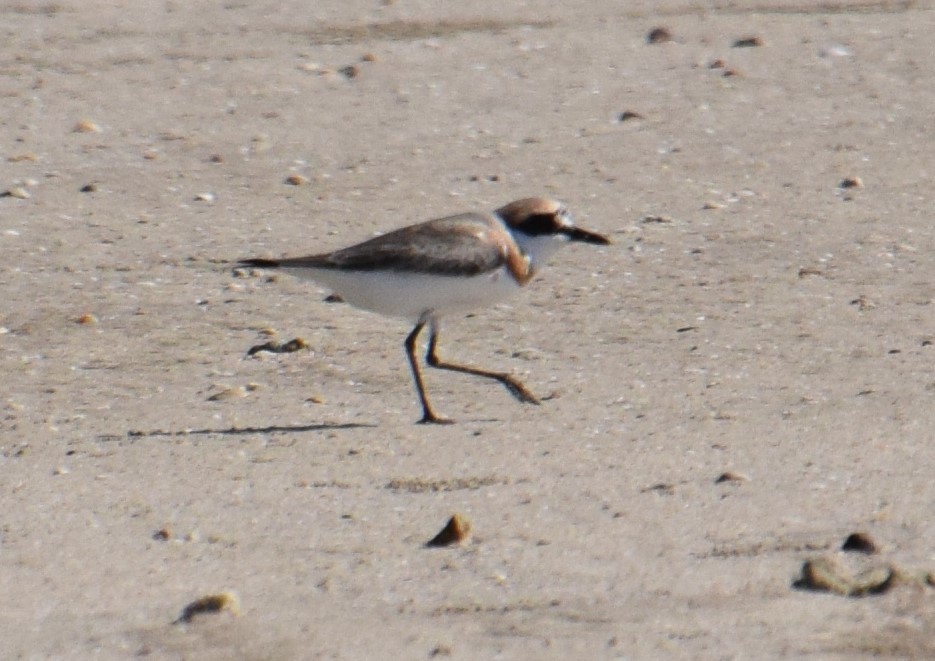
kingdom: Animalia
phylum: Chordata
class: Aves
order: Charadriiformes
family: Charadriidae
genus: Charadrius
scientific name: Charadrius leschenaultii
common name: Greater sand plover
